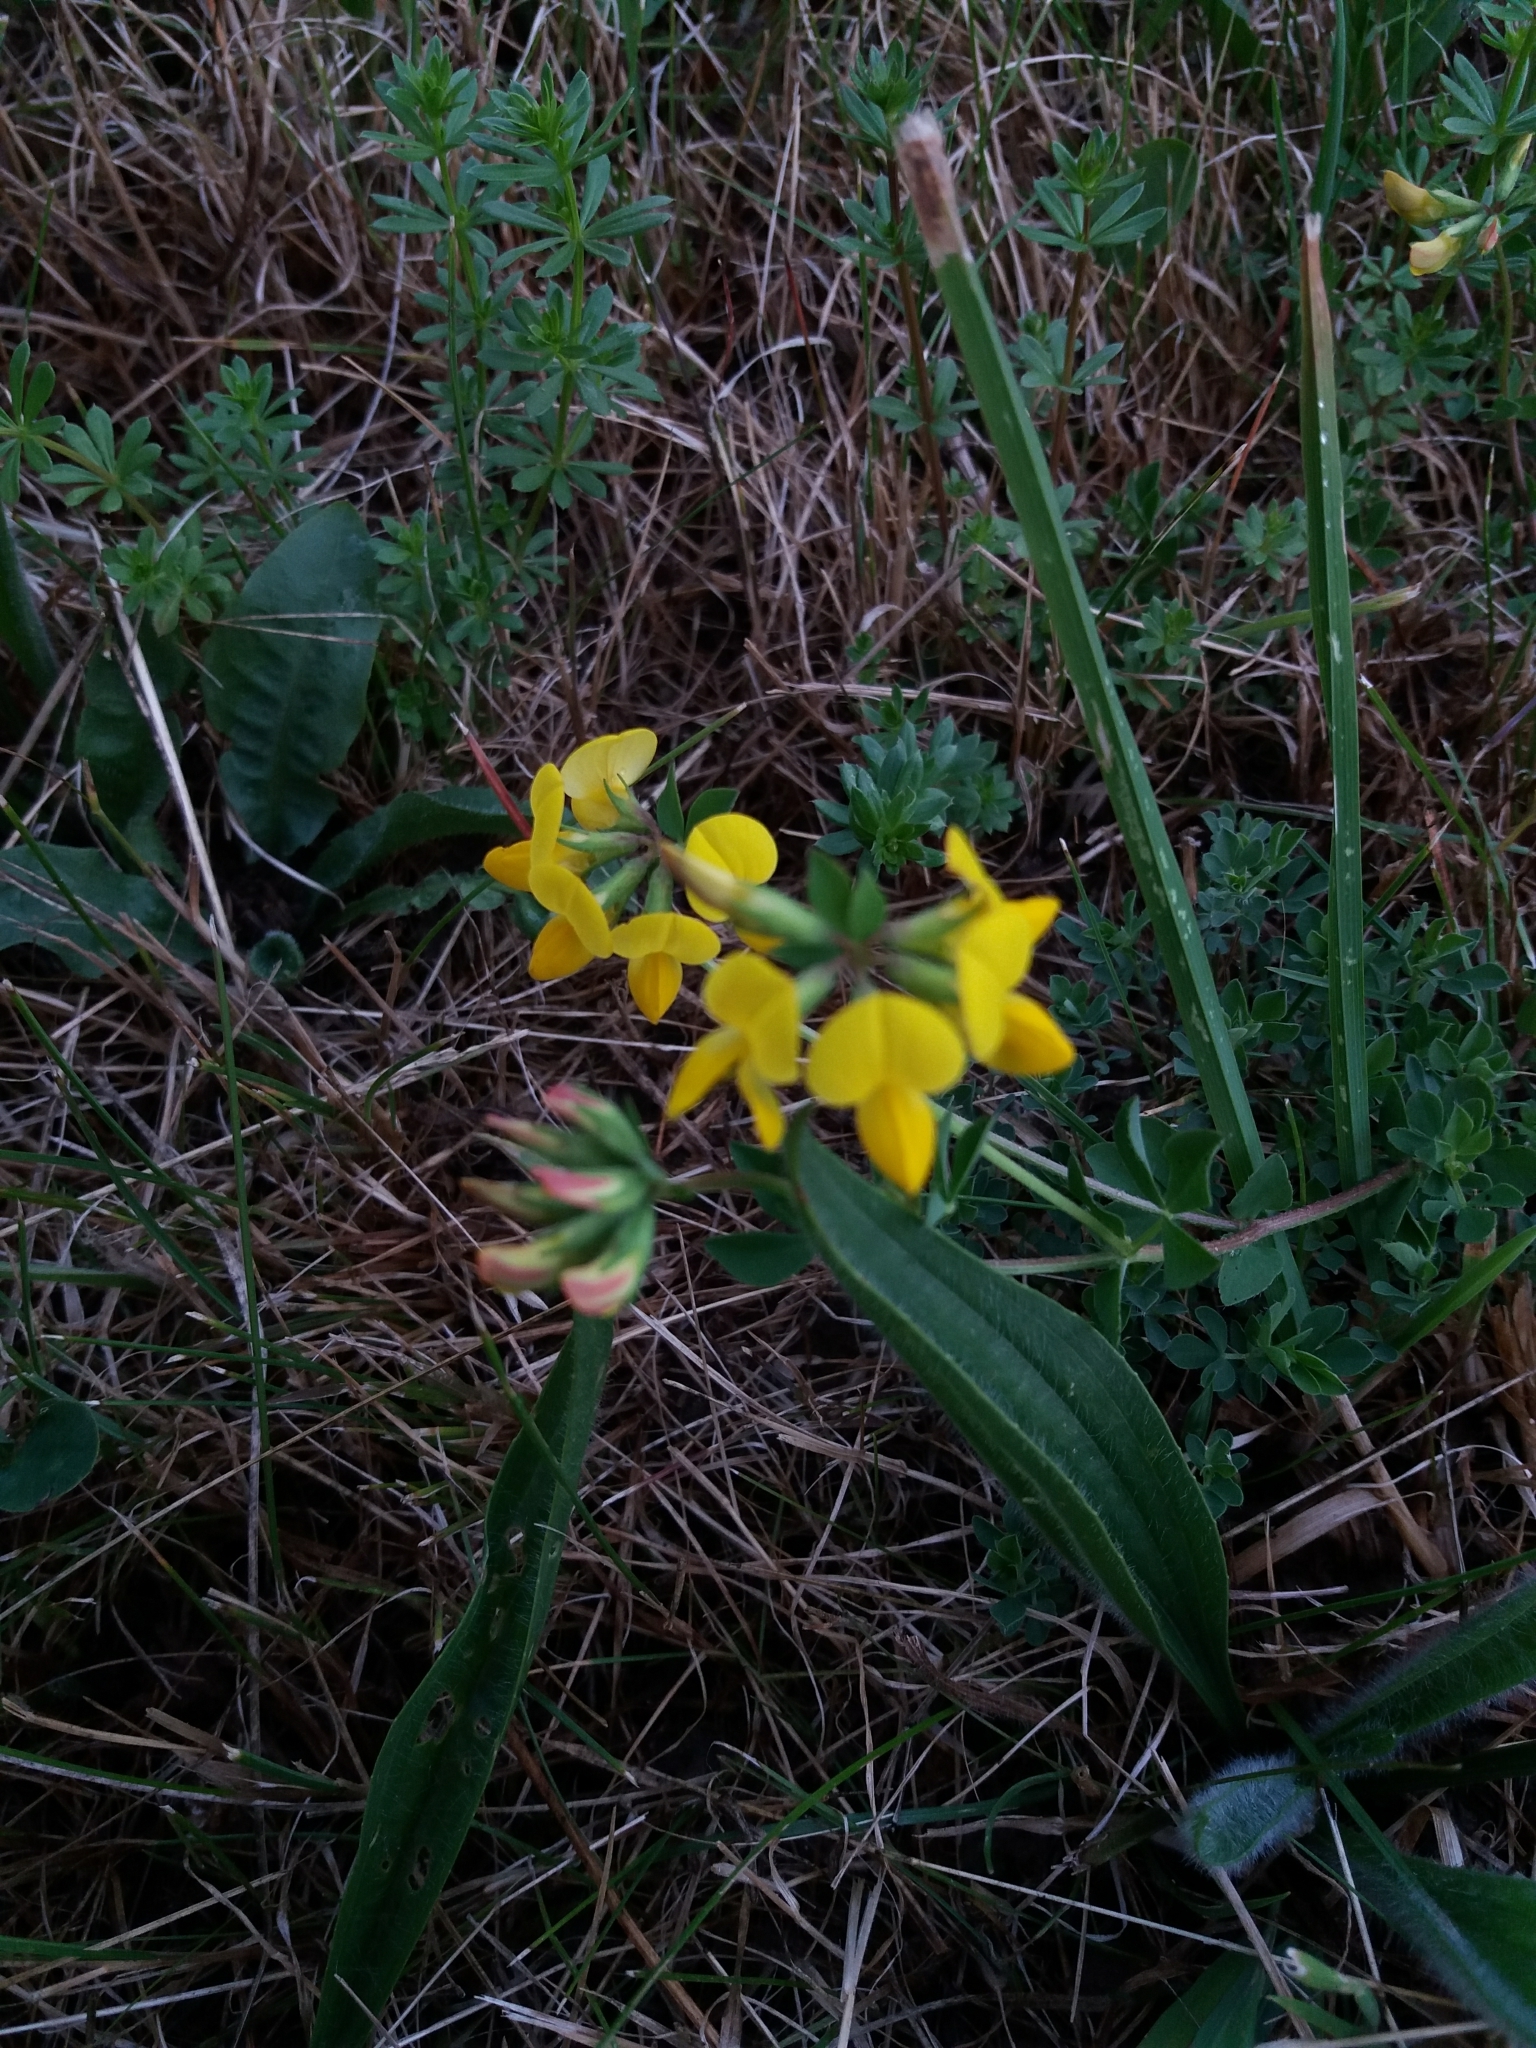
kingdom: Plantae
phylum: Tracheophyta
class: Magnoliopsida
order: Fabales
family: Fabaceae
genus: Lotus
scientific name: Lotus corniculatus
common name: Common bird's-foot-trefoil
